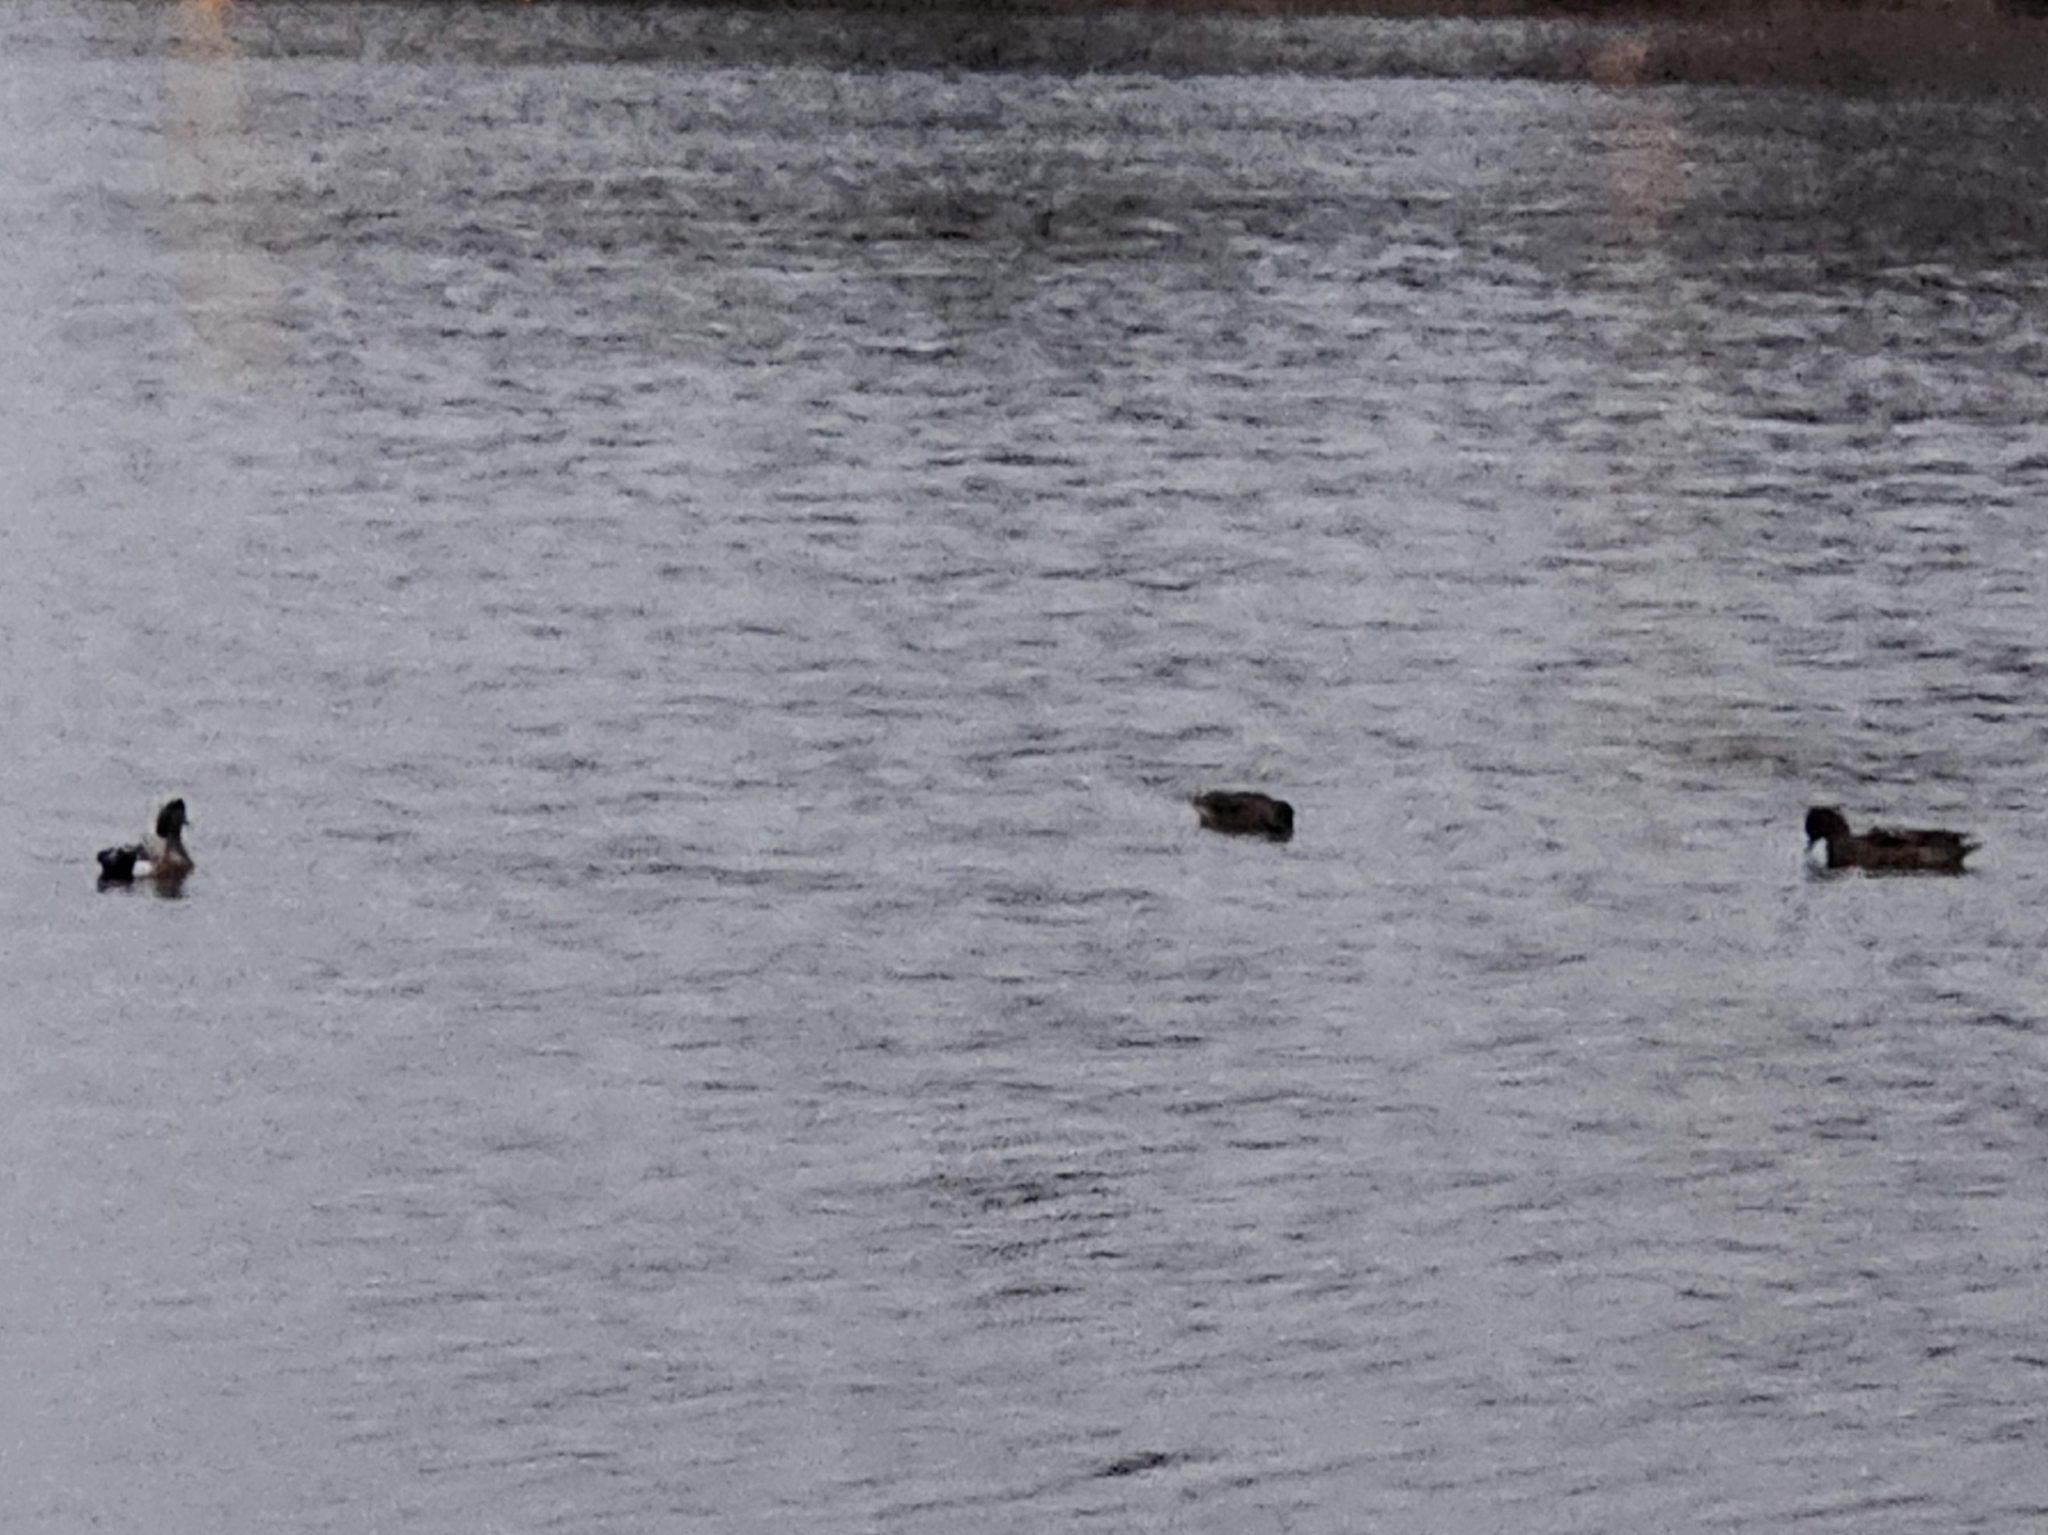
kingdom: Animalia
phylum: Chordata
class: Aves
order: Anseriformes
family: Anatidae
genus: Mareca
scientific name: Mareca americana
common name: American wigeon
